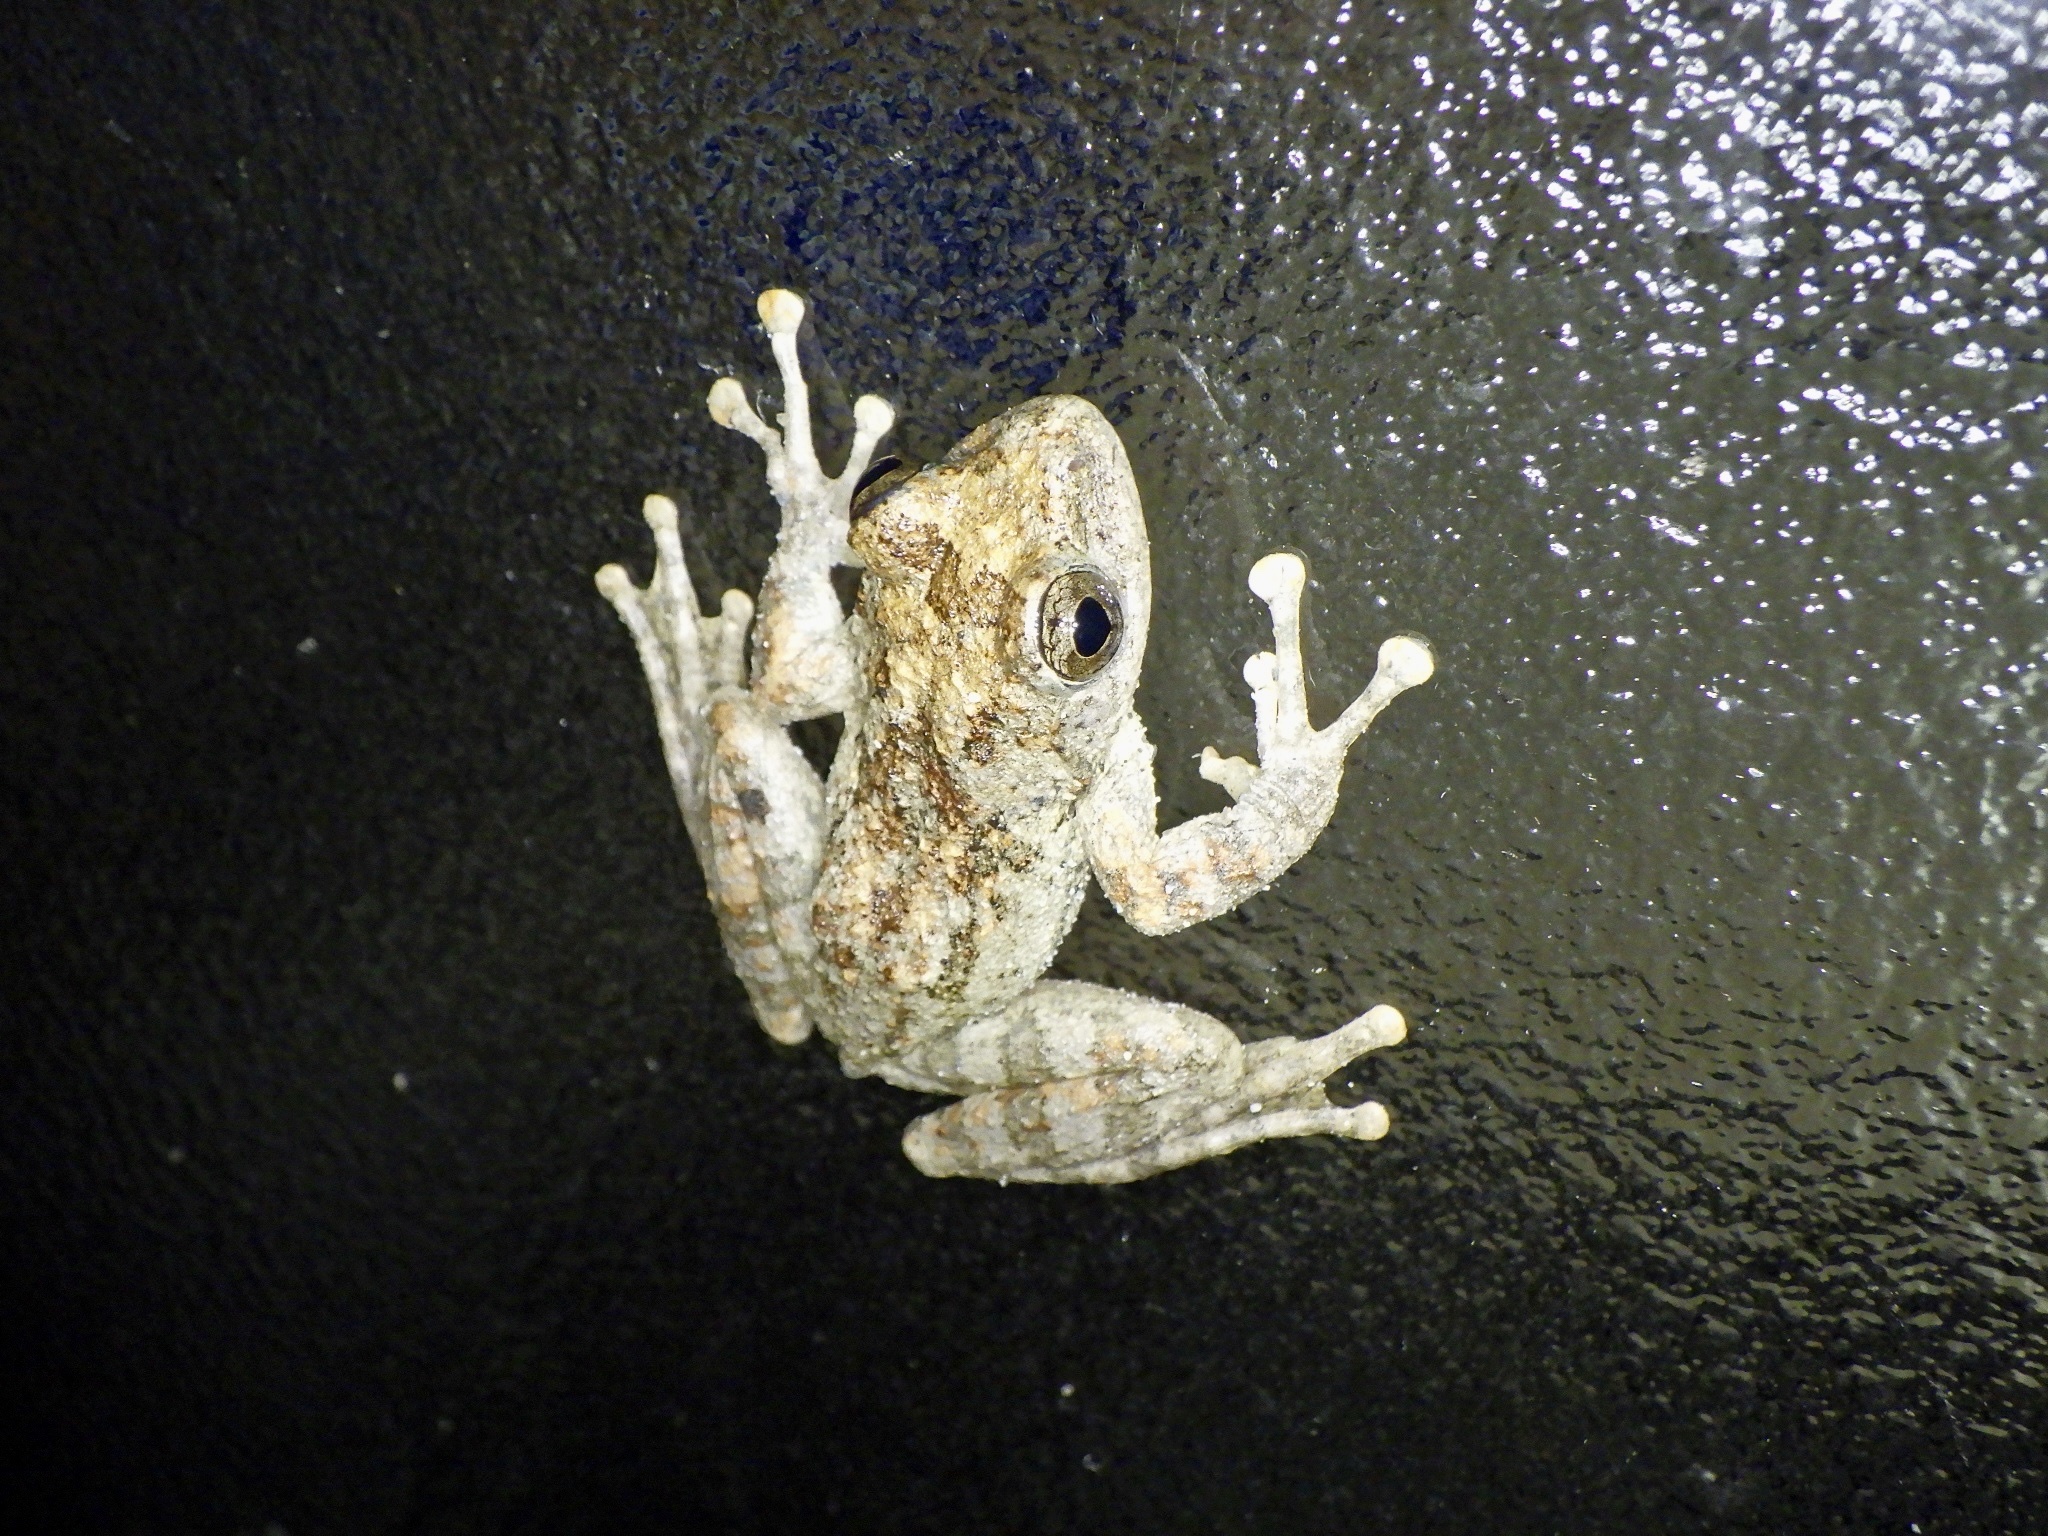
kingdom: Animalia
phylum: Chordata
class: Amphibia
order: Anura
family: Rhacophoridae
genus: Buergeria
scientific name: Buergeria buergeri
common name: Buerger's frog
